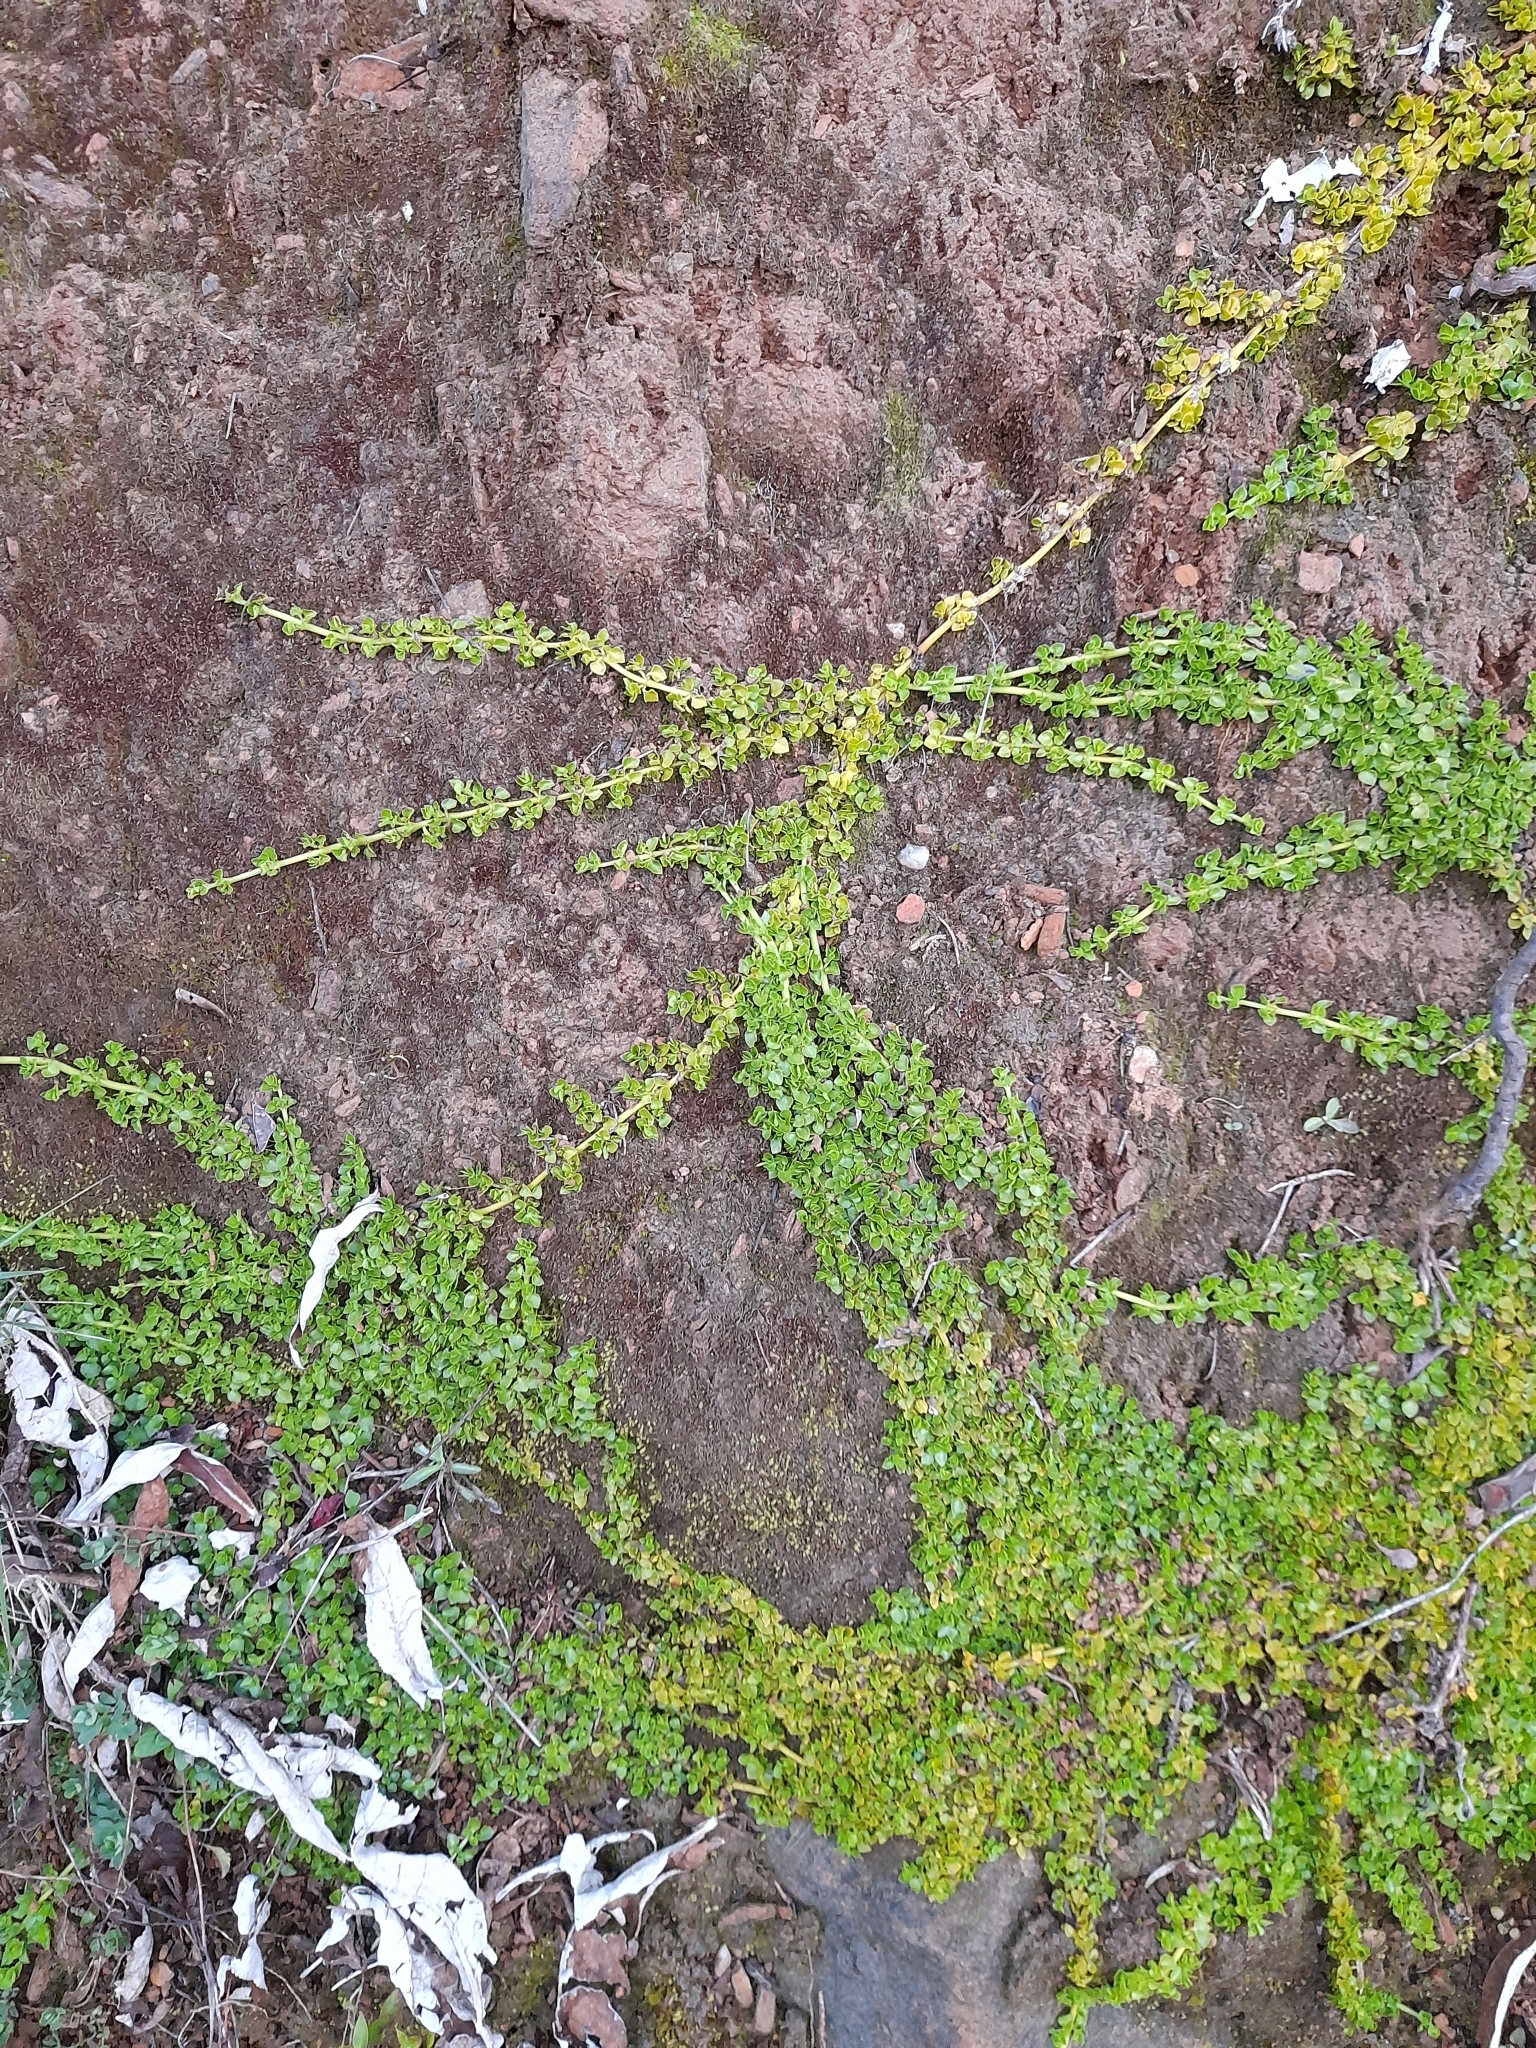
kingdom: Plantae
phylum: Tracheophyta
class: Magnoliopsida
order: Gentianales
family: Rubiaceae
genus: Nertera
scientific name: Nertera granadensis
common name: Beadplant
